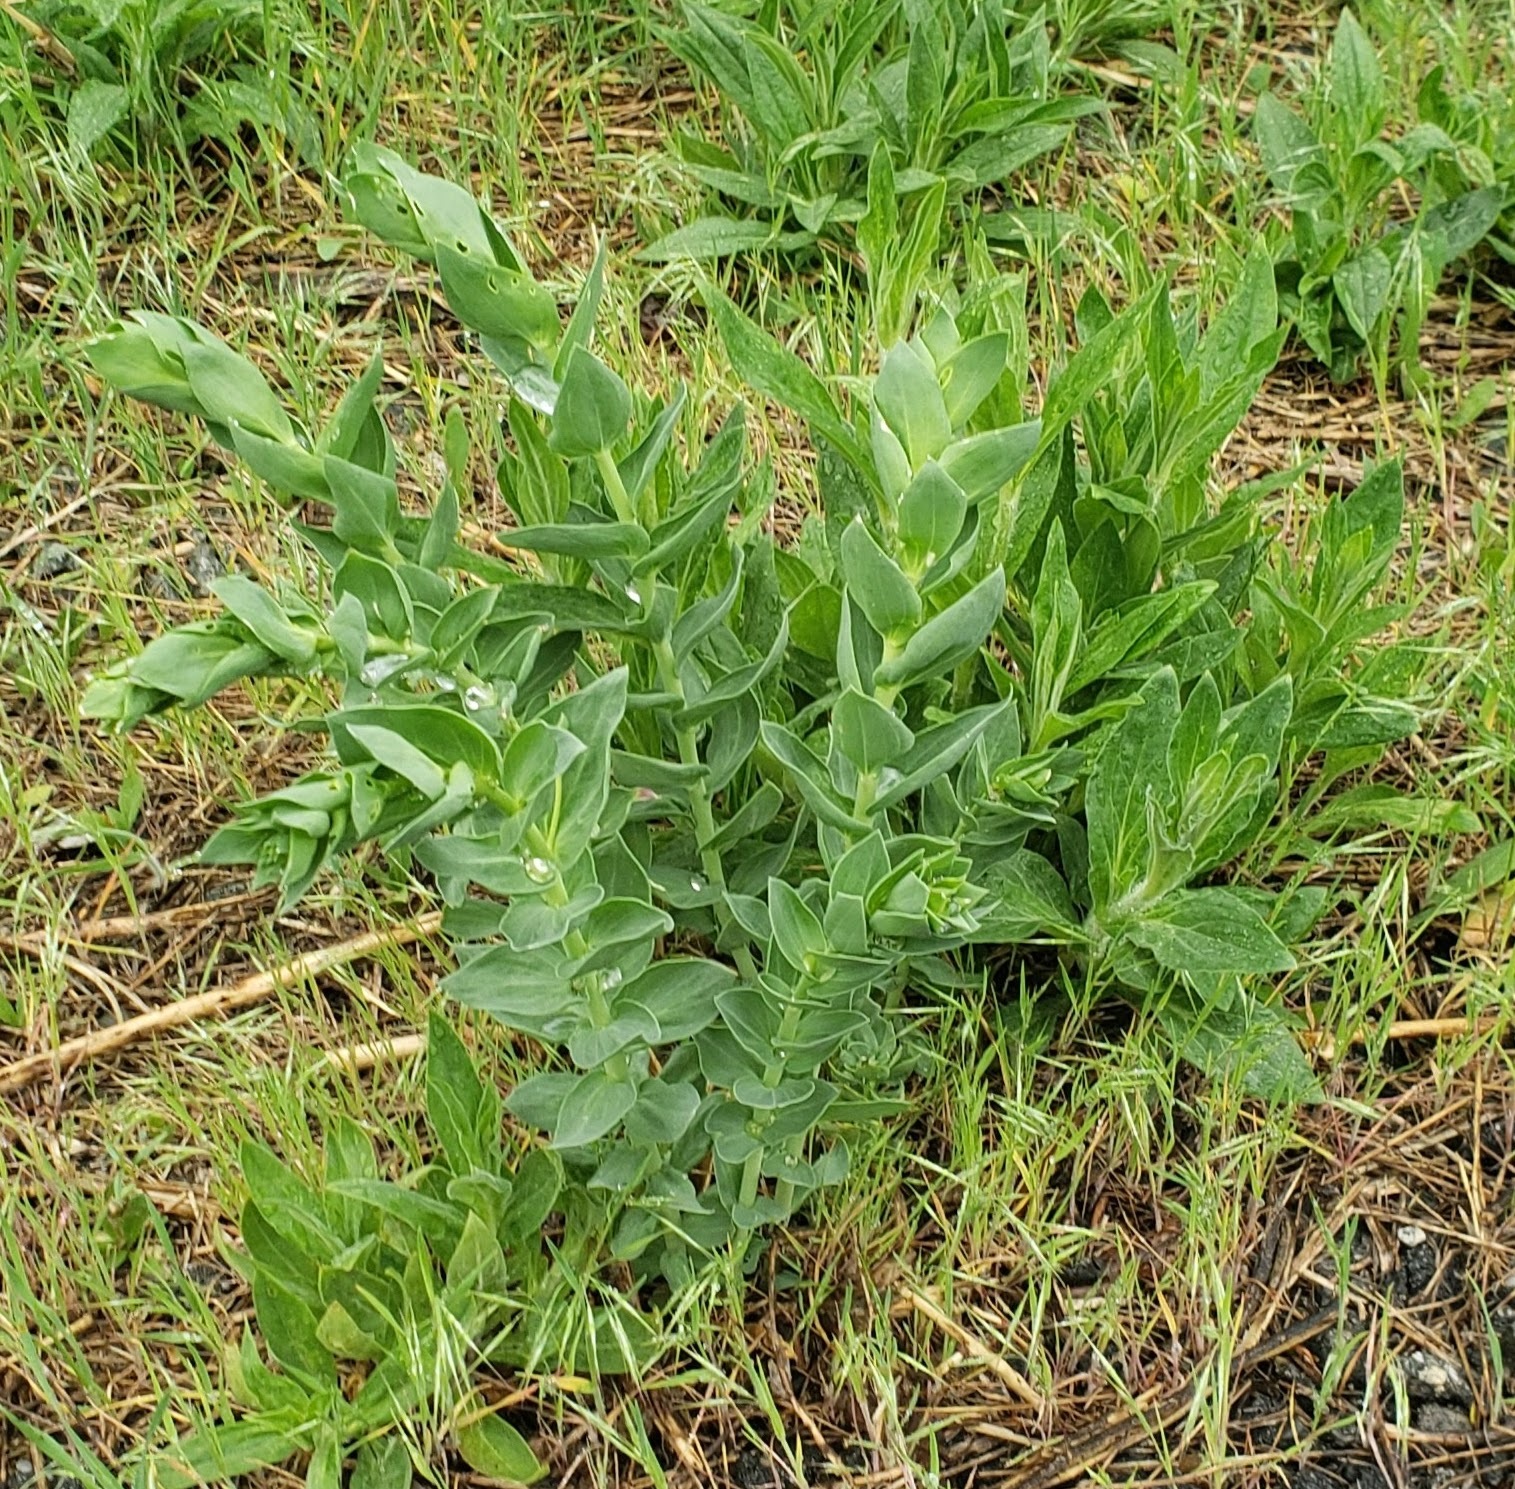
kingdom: Plantae
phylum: Tracheophyta
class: Magnoliopsida
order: Lamiales
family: Plantaginaceae
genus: Linaria
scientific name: Linaria dalmatica
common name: Dalmatian toadflax
